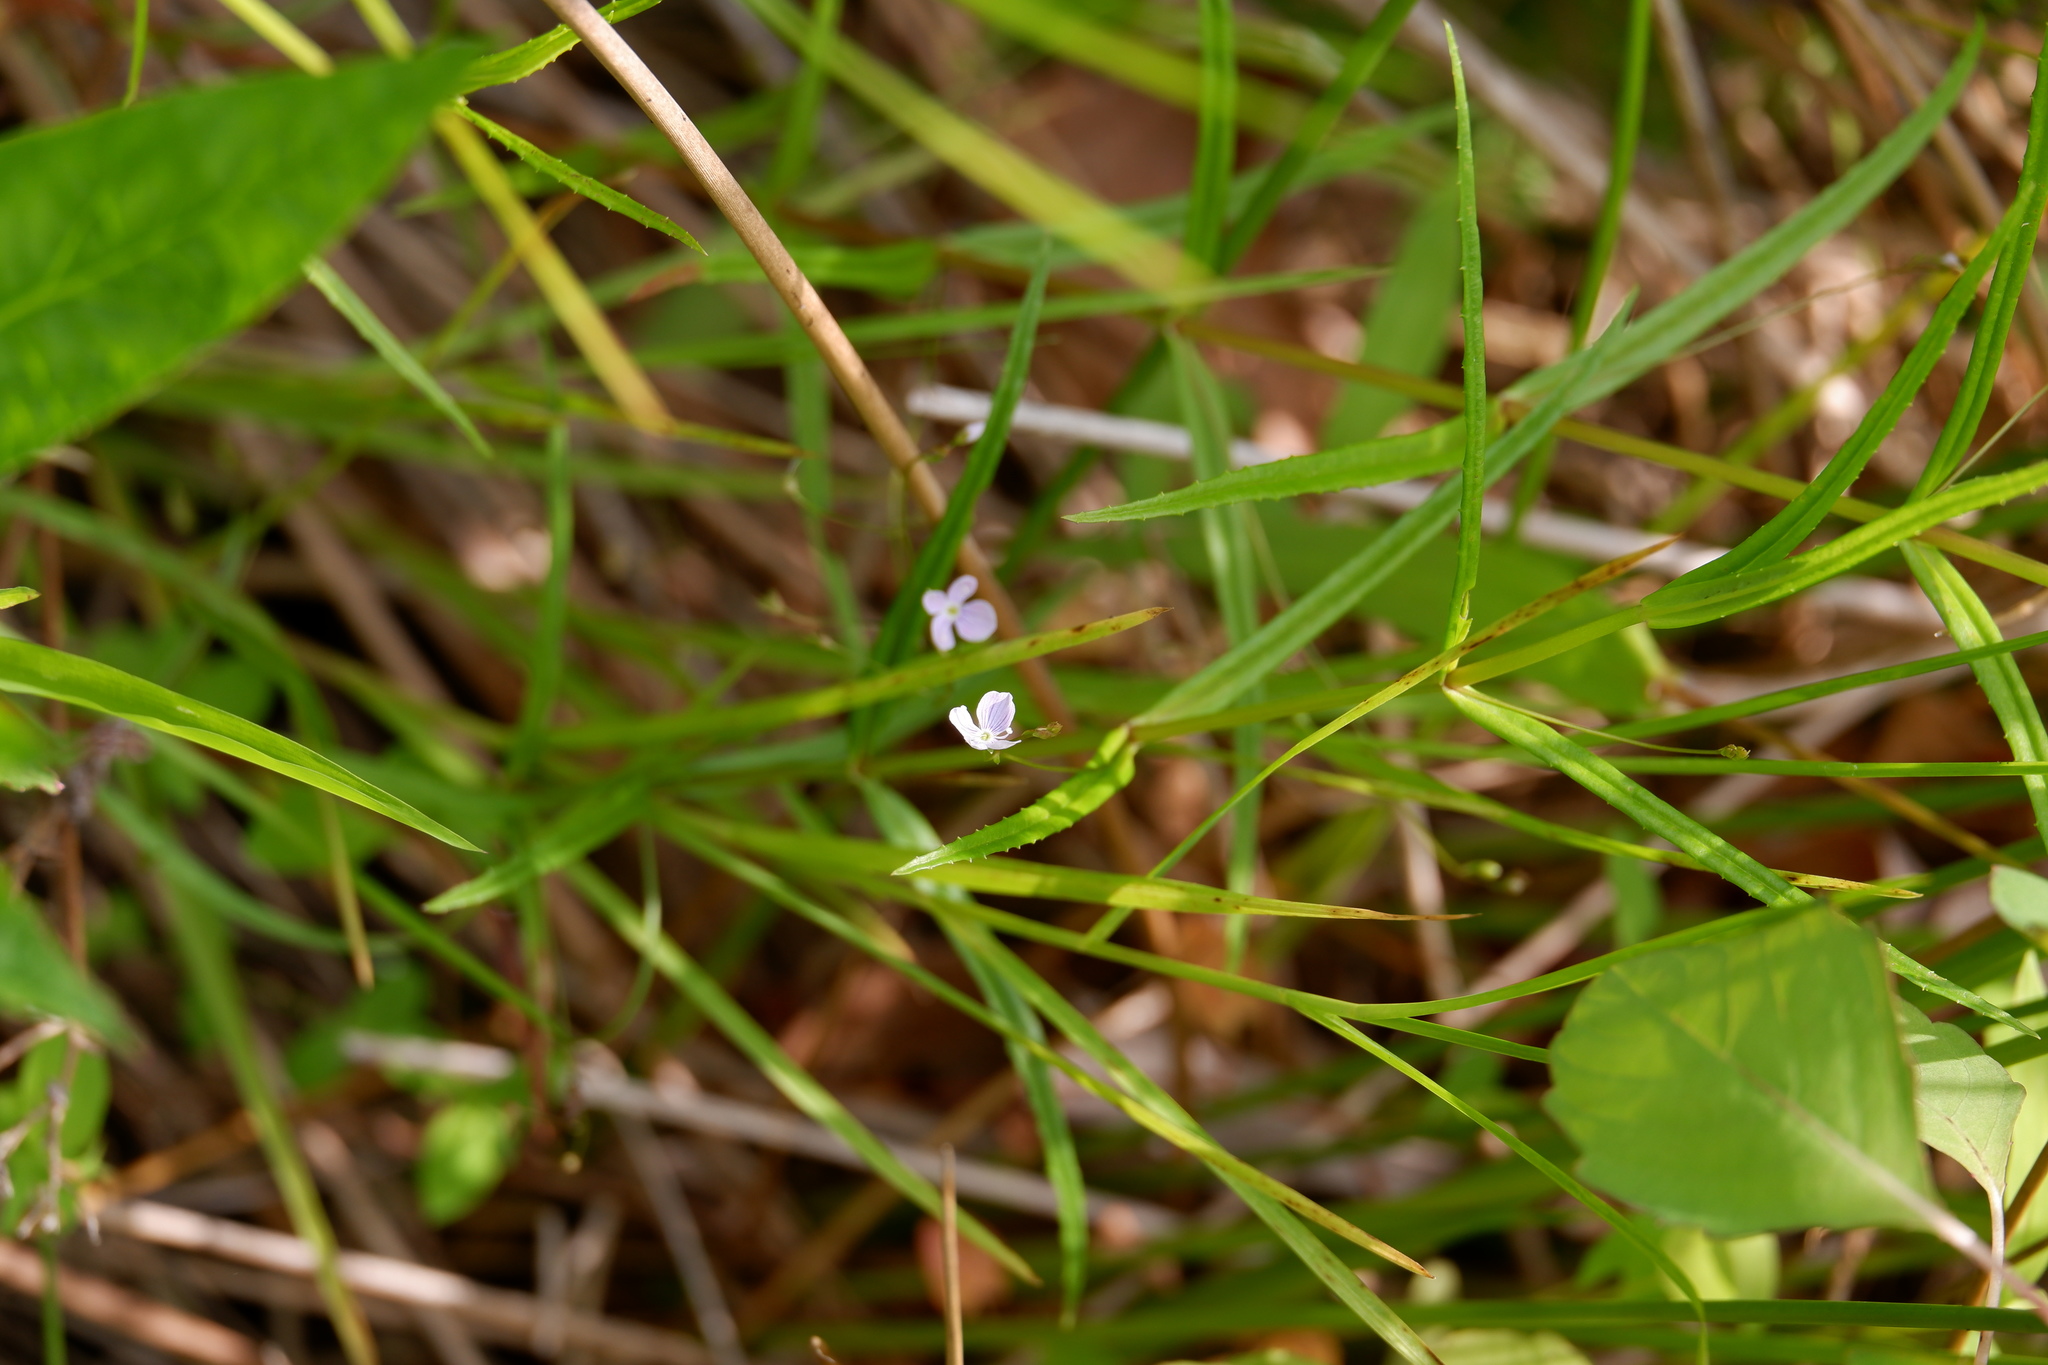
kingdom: Plantae
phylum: Tracheophyta
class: Magnoliopsida
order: Lamiales
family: Plantaginaceae
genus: Veronica
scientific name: Veronica scutellata
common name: Marsh speedwell
